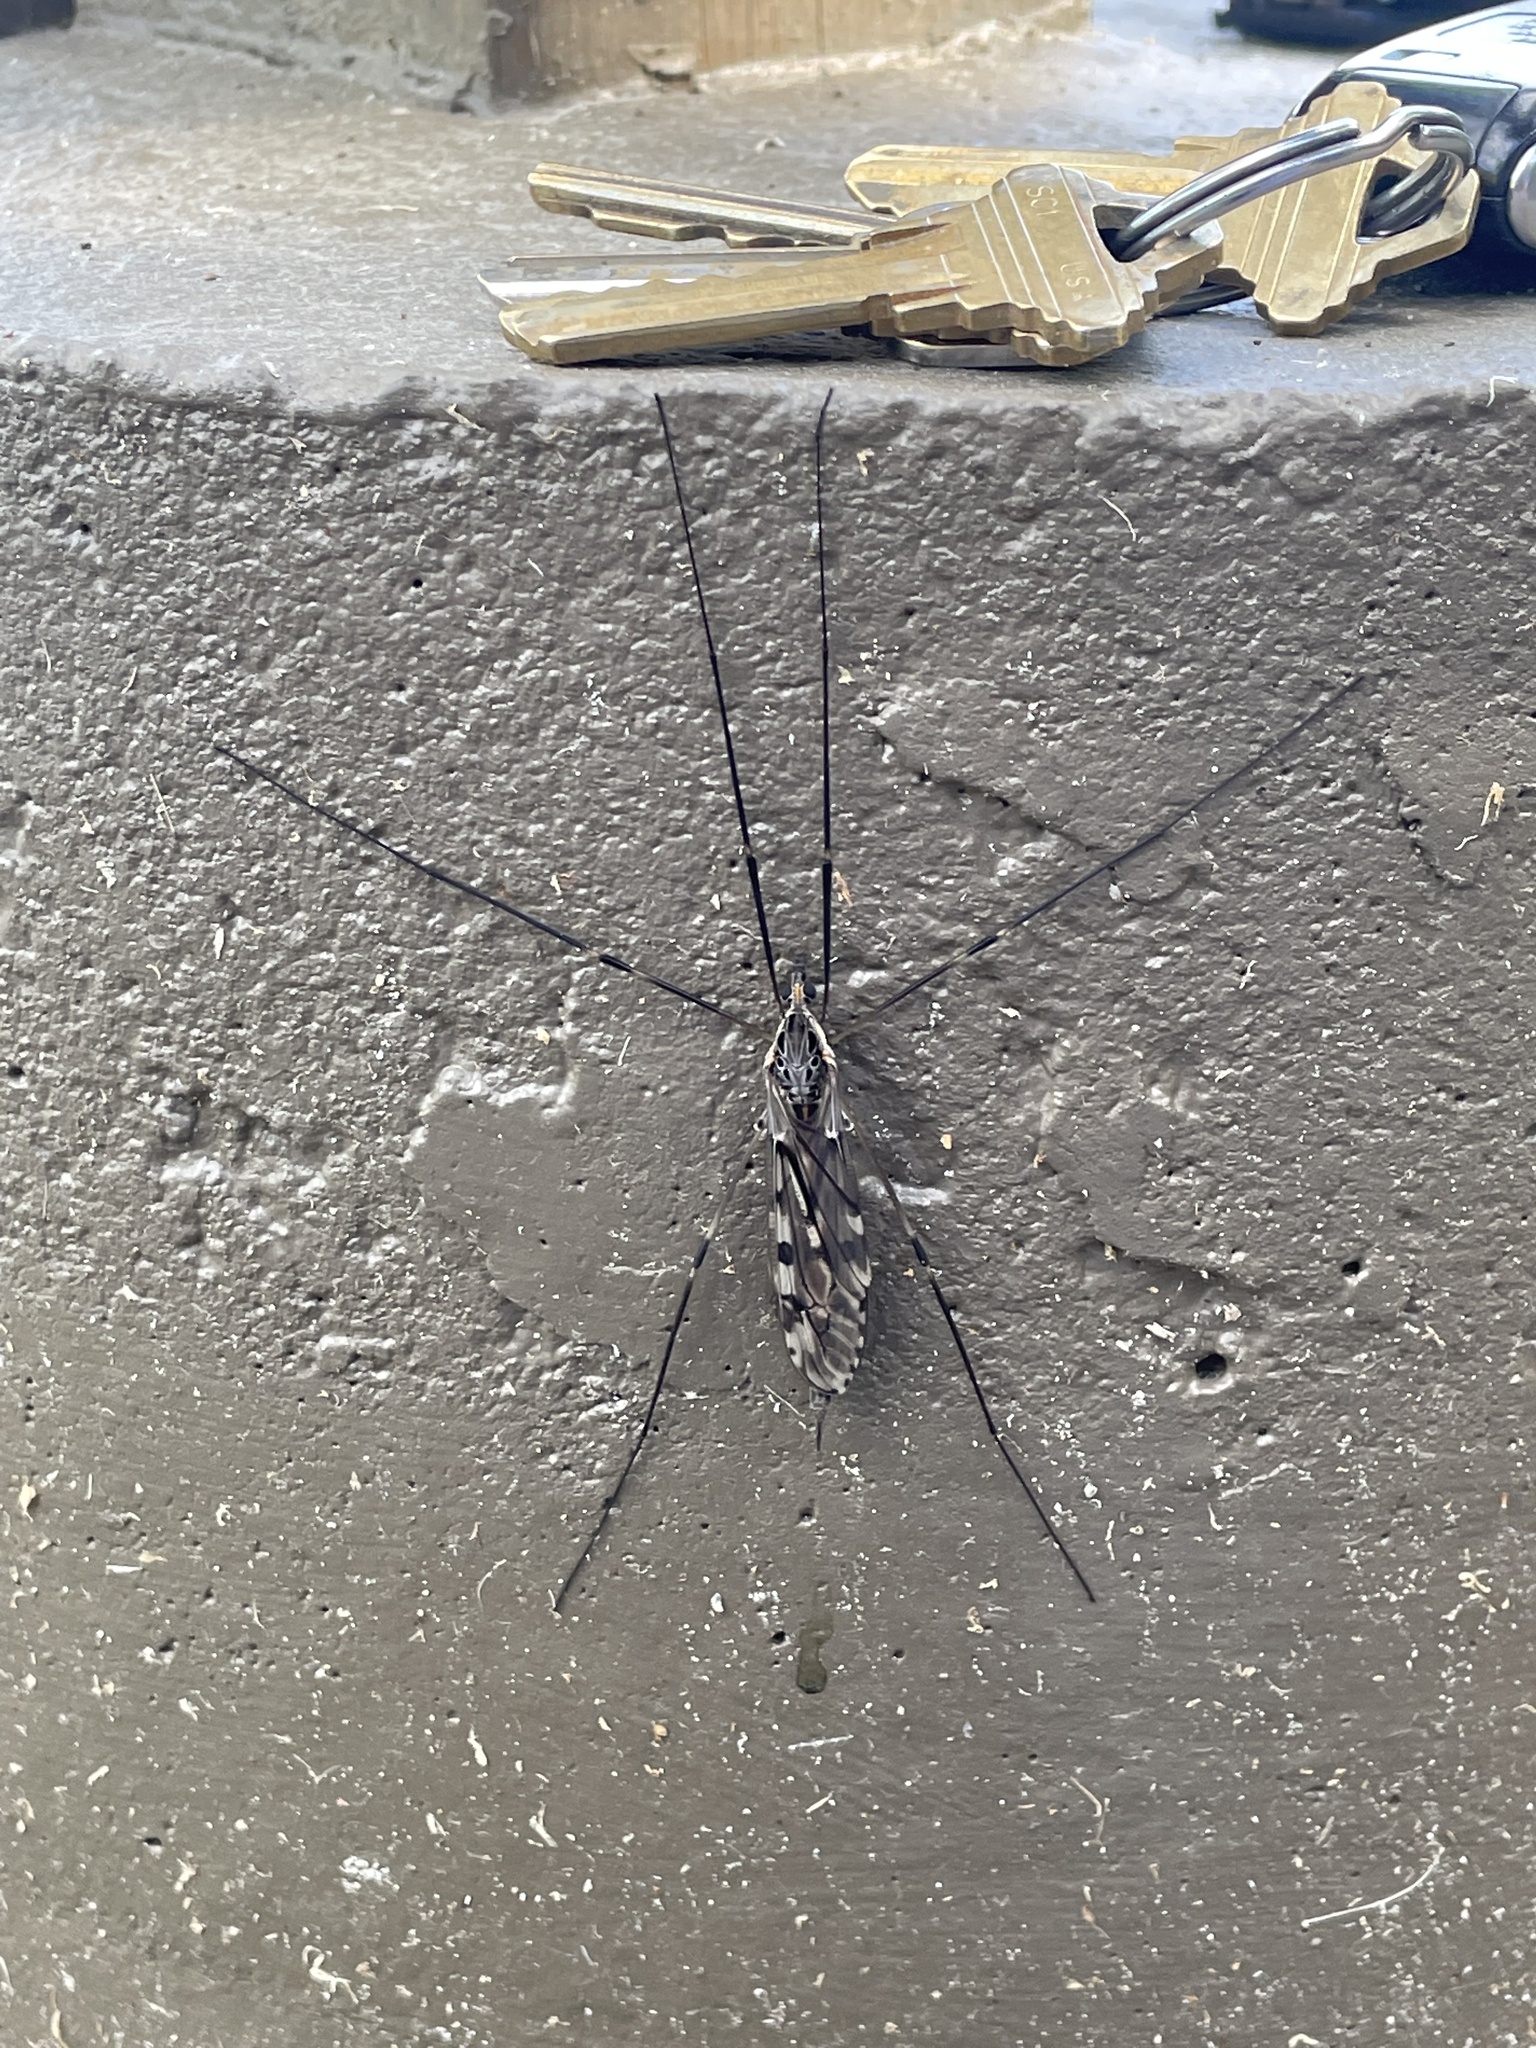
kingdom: Animalia
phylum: Arthropoda
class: Insecta
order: Diptera
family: Tipulidae
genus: Tipula
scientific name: Tipula abdominalis
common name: Giant crane fly
